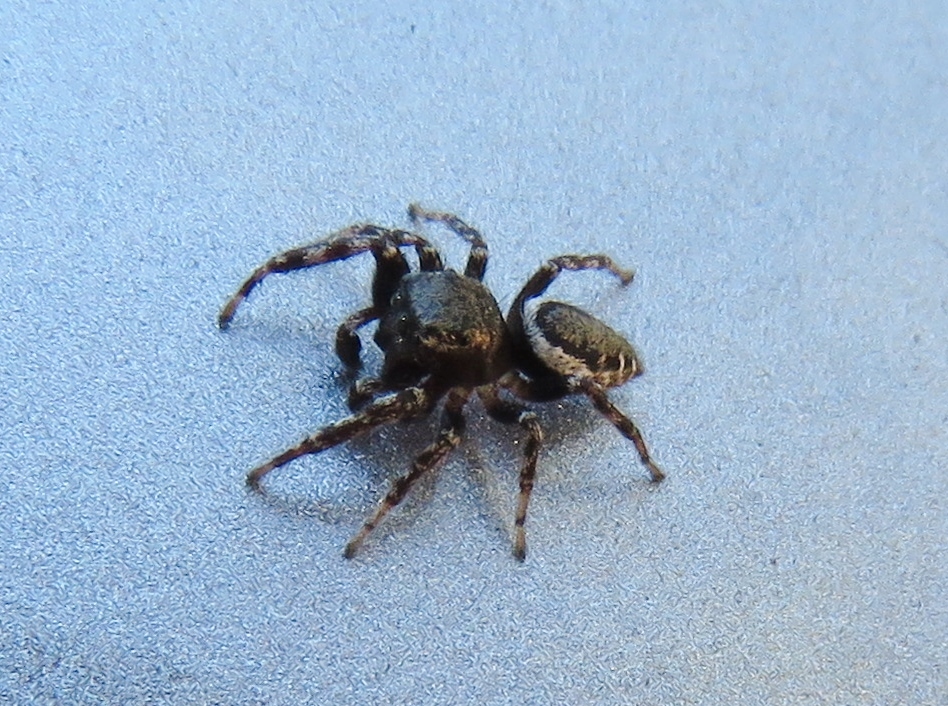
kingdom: Animalia
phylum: Arthropoda
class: Arachnida
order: Araneae
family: Salticidae
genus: Pelegrina
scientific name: Pelegrina aeneola
